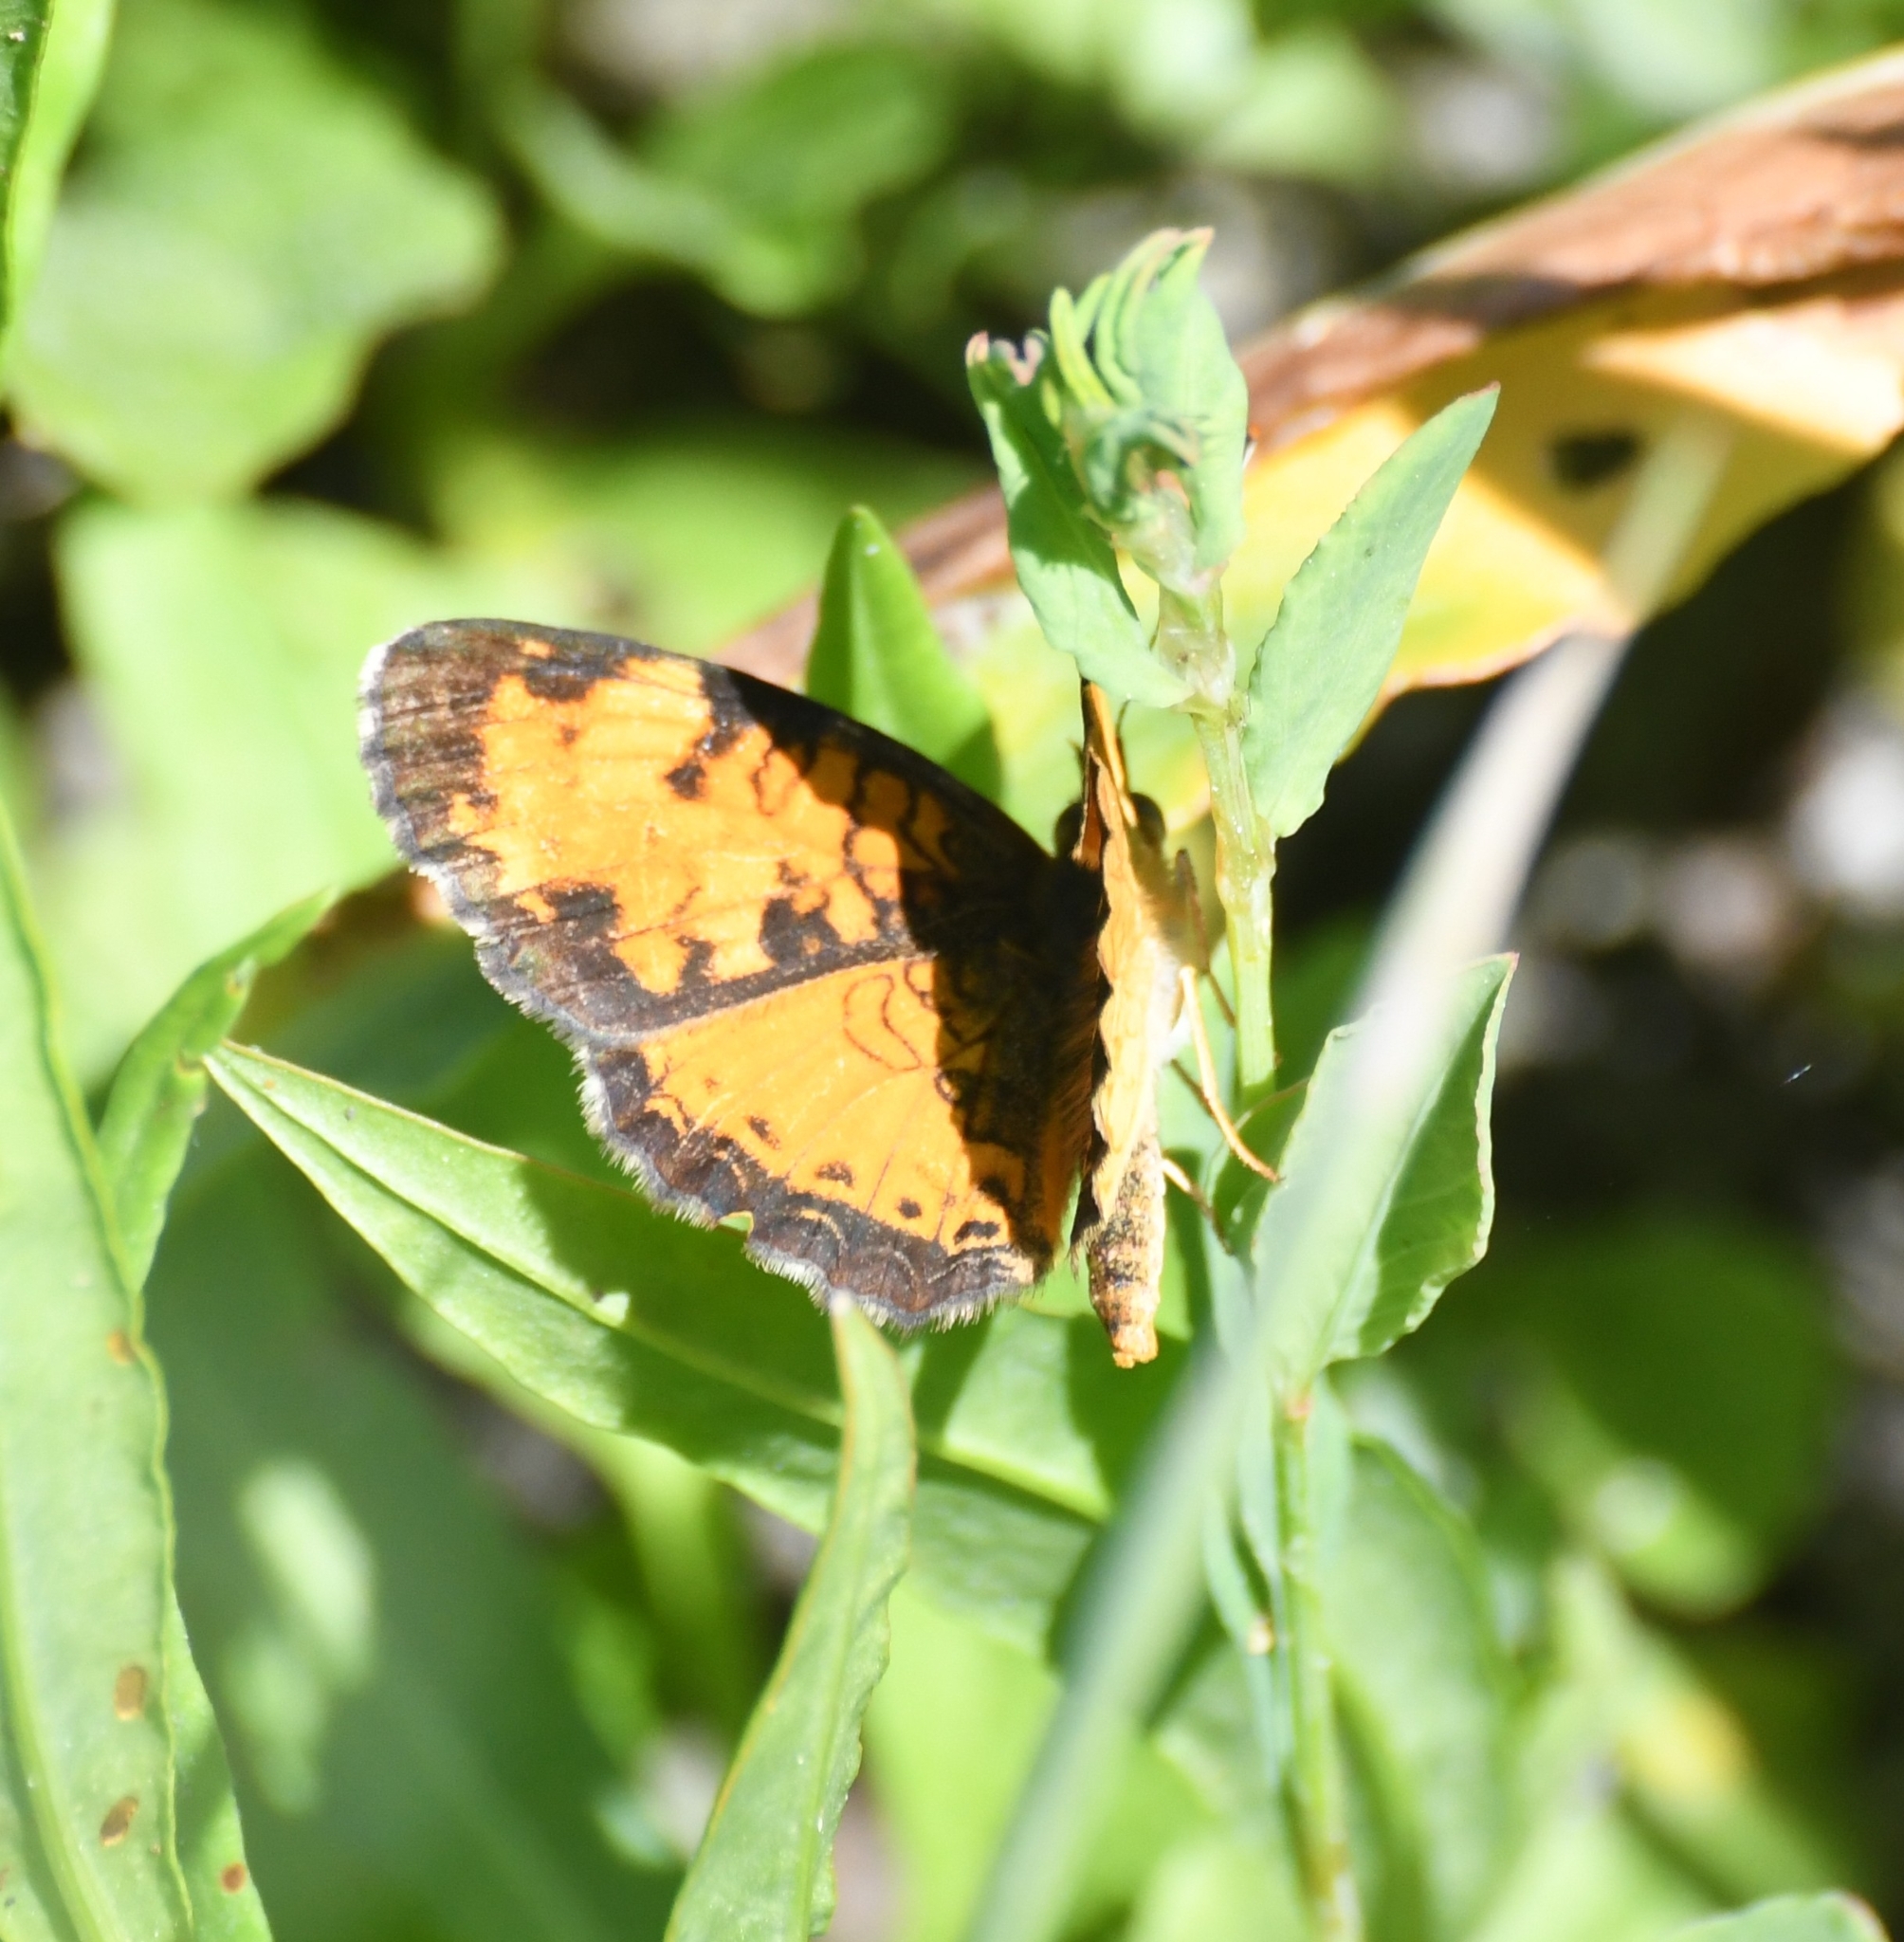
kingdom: Animalia
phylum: Arthropoda
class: Insecta
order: Lepidoptera
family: Nymphalidae
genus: Phyciodes
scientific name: Phyciodes tharos
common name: Pearl crescent
